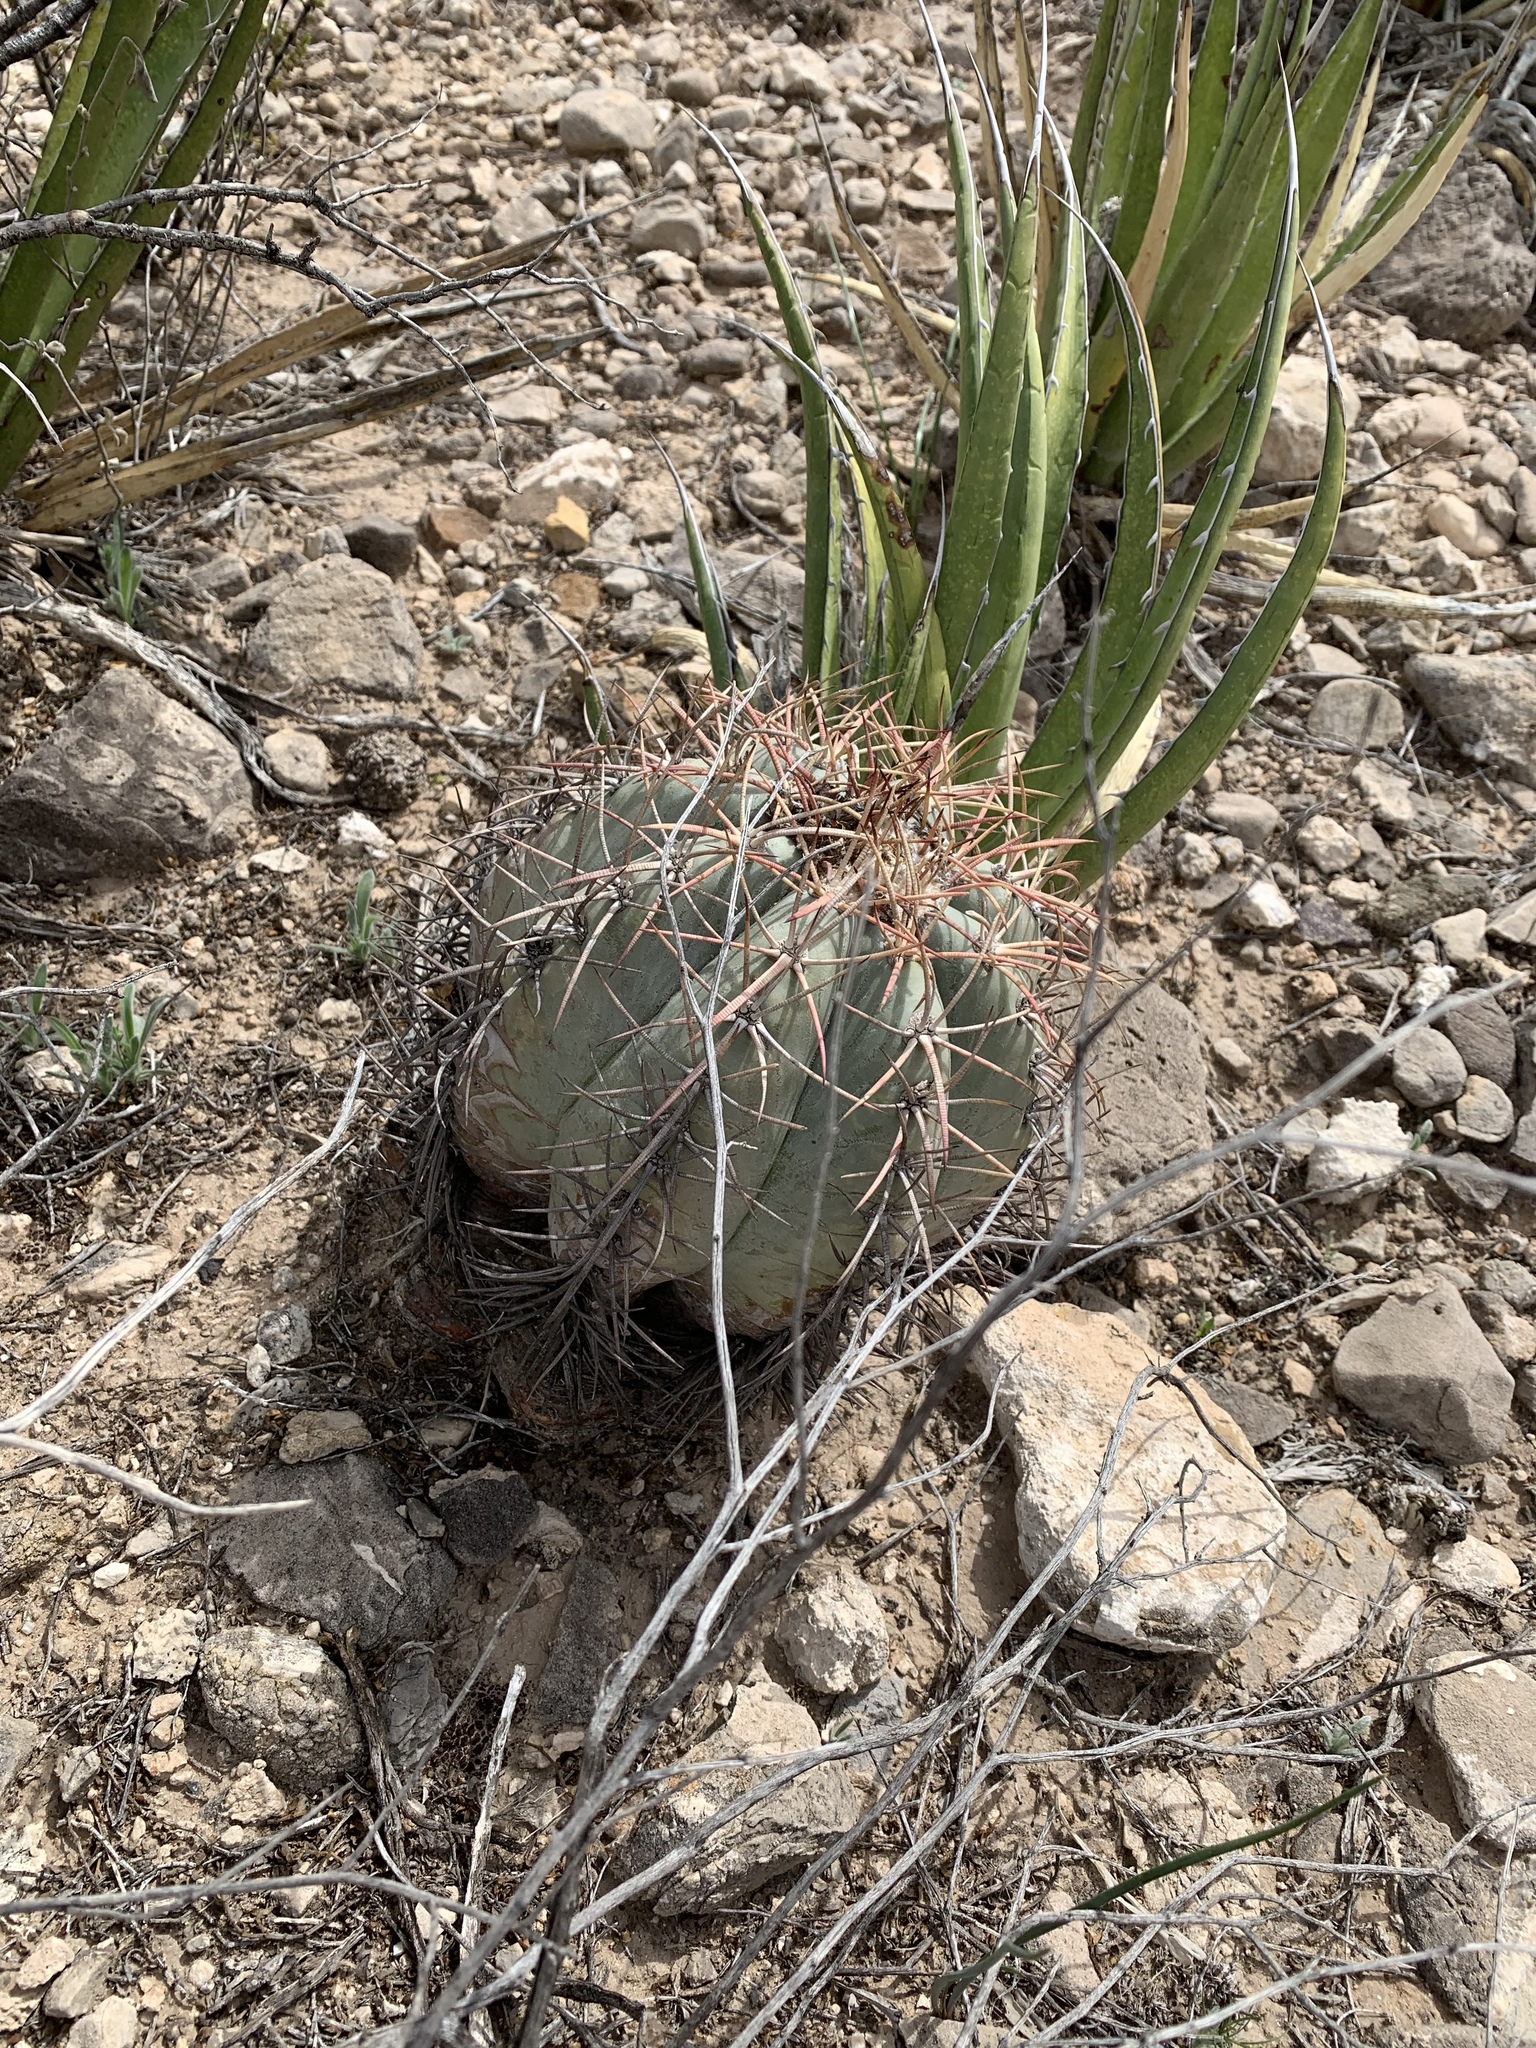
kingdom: Plantae
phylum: Tracheophyta
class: Magnoliopsida
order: Caryophyllales
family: Cactaceae
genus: Echinocactus
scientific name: Echinocactus horizonthalonius
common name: Devilshead
